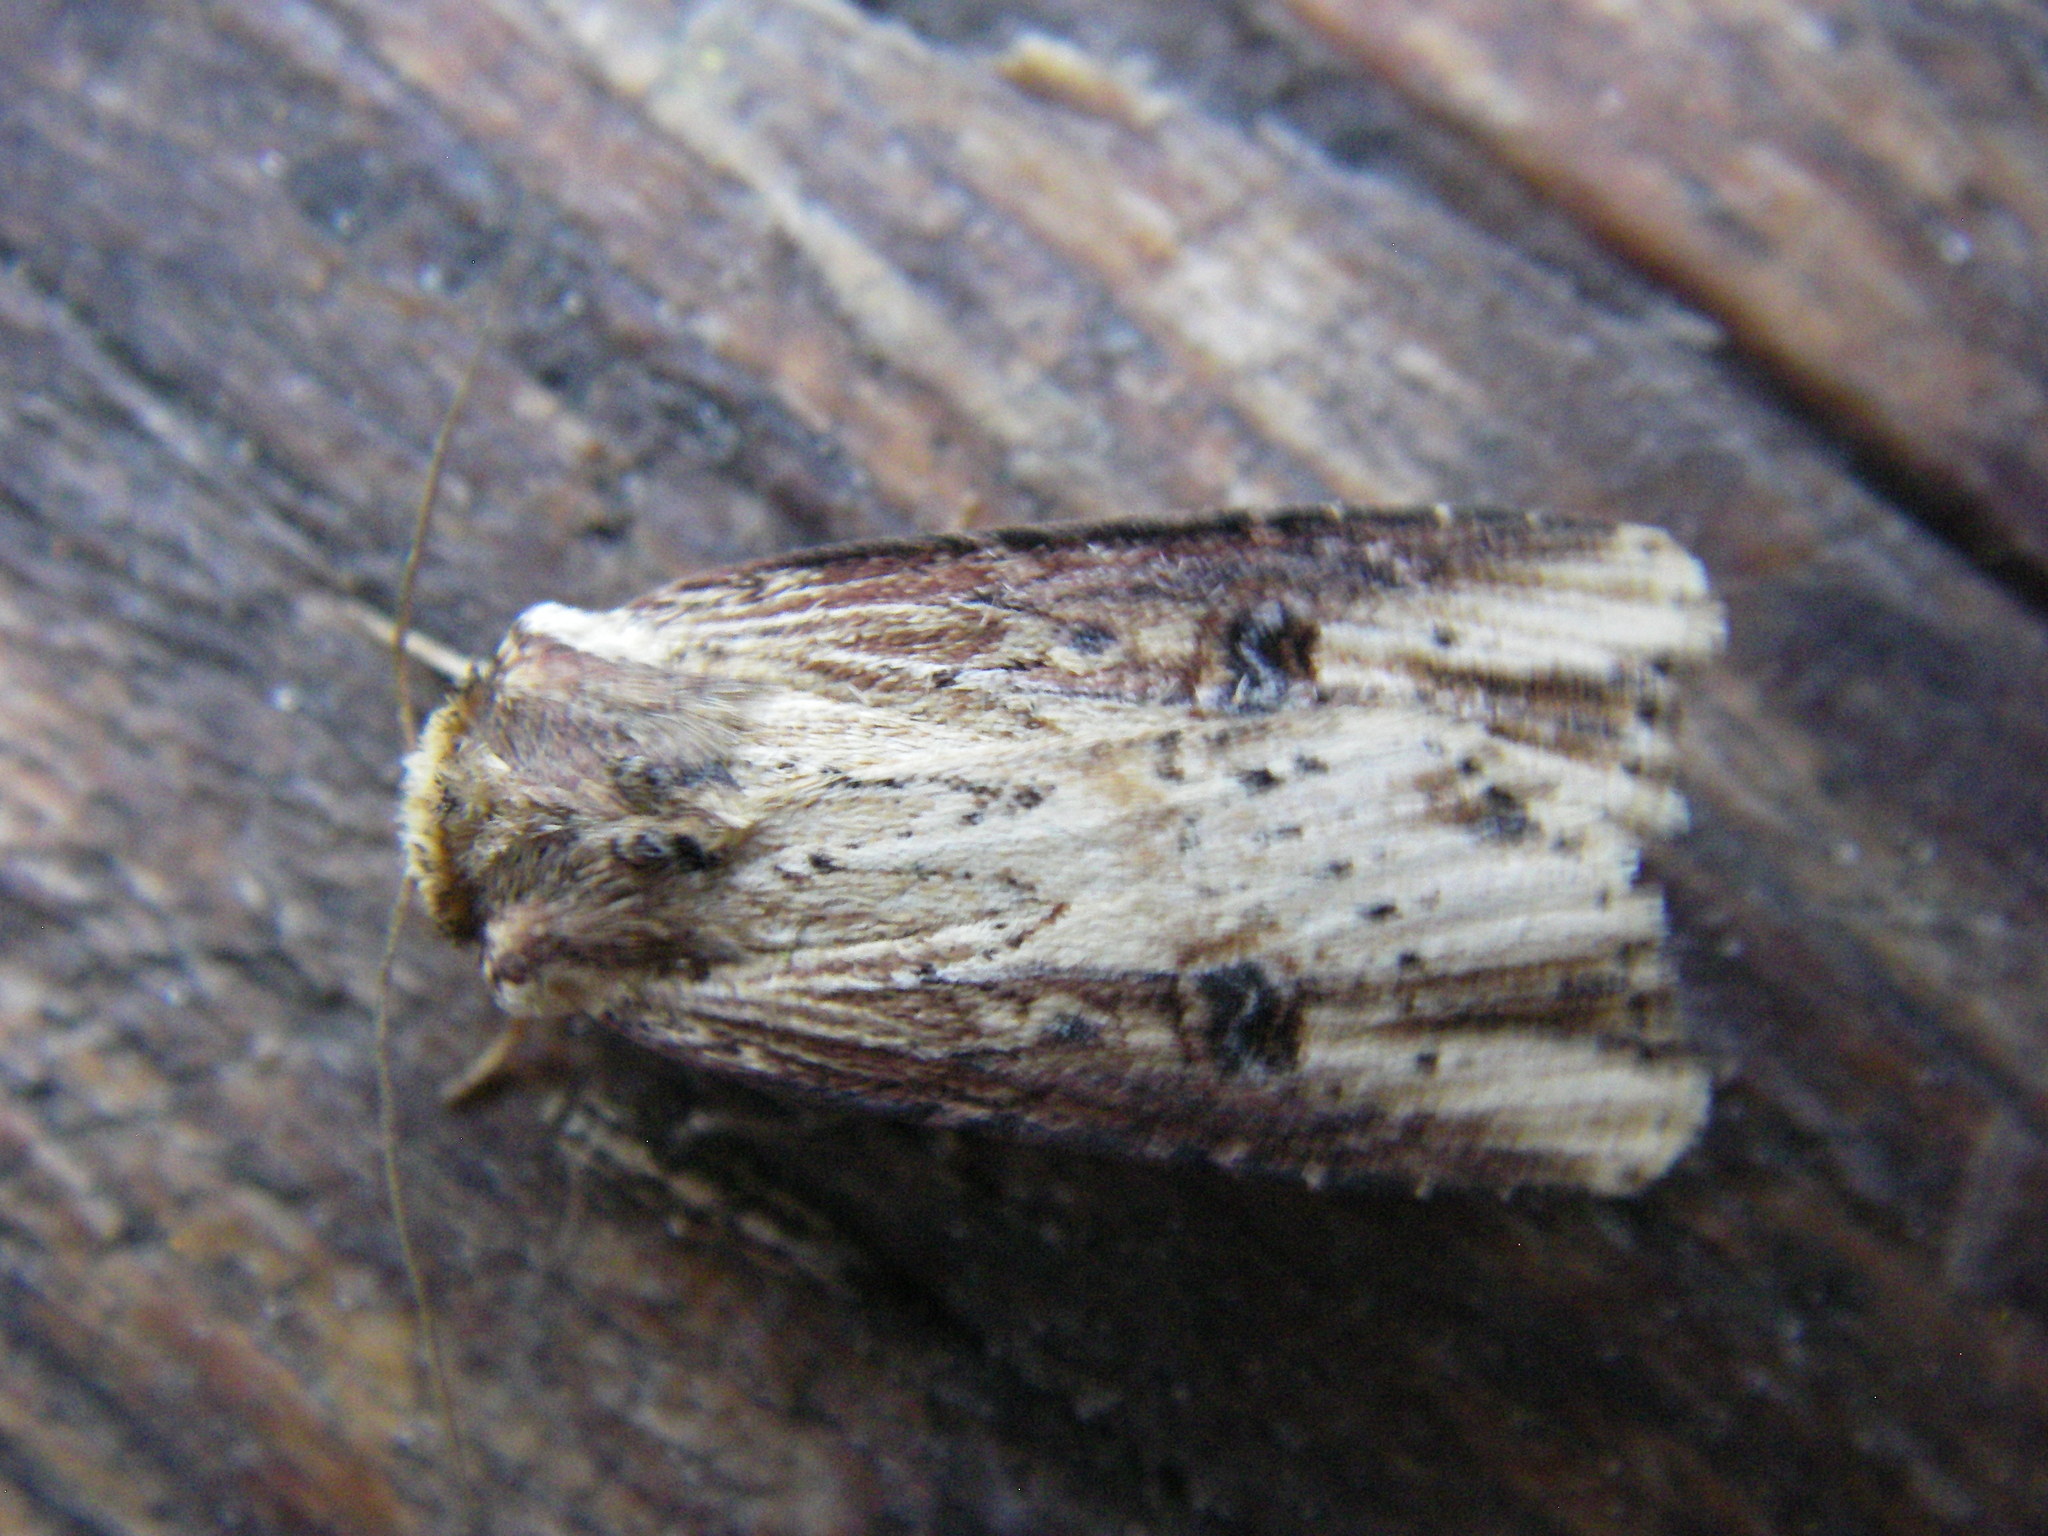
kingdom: Animalia
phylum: Arthropoda
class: Insecta
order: Lepidoptera
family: Noctuidae
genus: Axylia
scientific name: Axylia putris
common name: Flame
